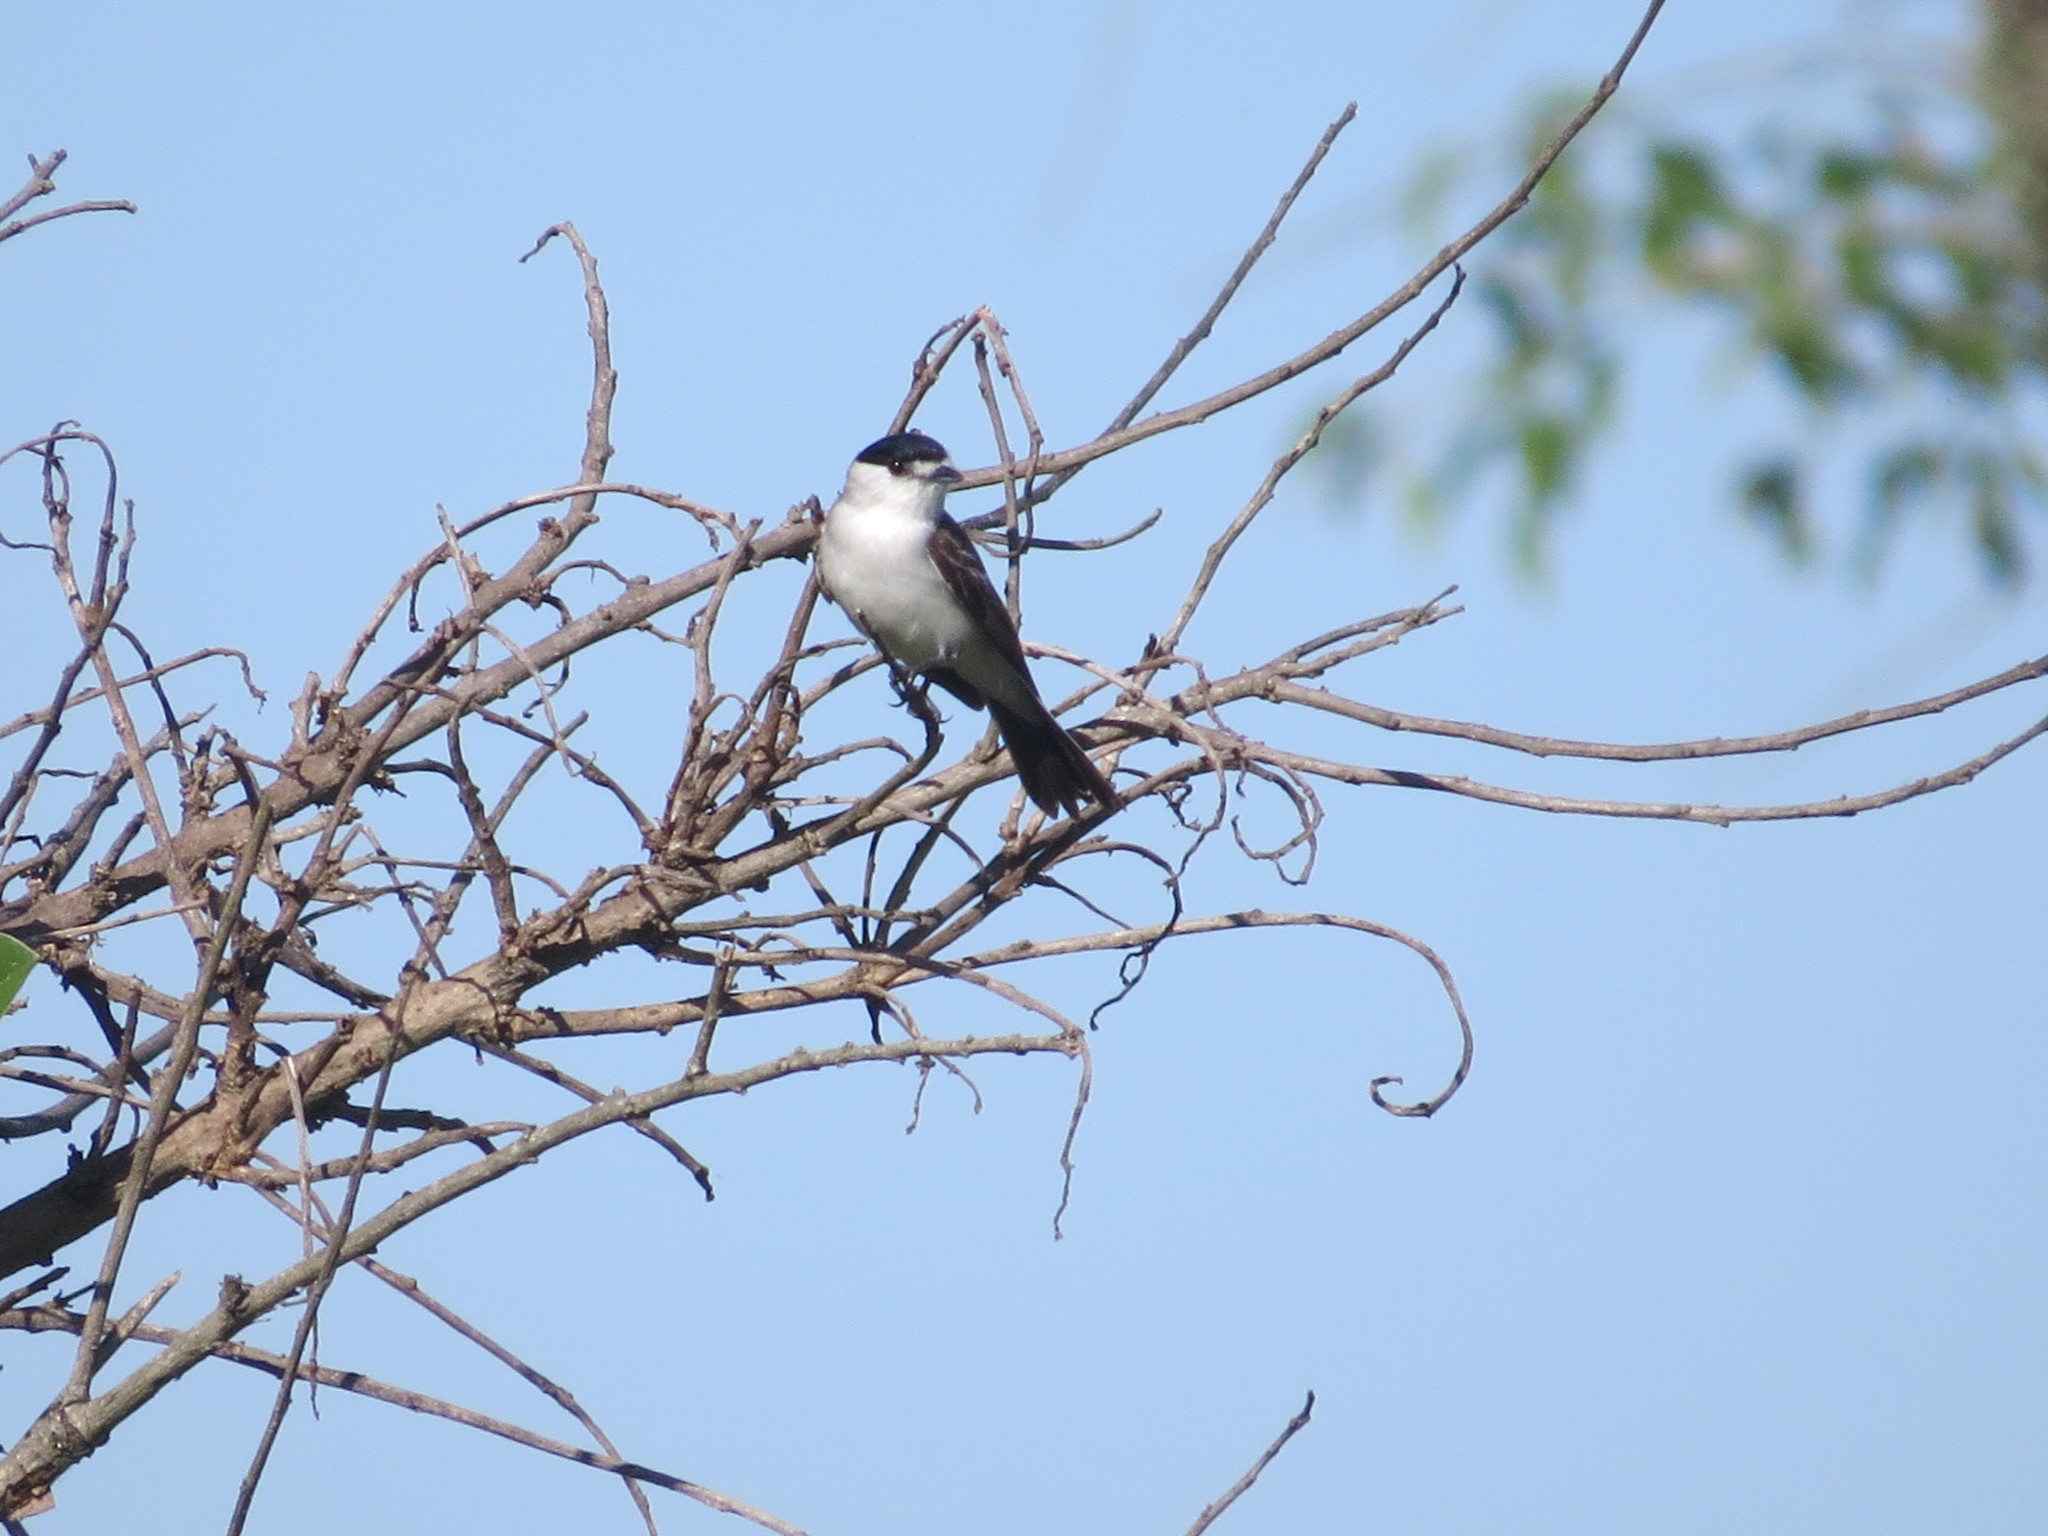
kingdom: Animalia
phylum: Chordata
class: Aves
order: Passeriformes
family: Cotingidae
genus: Xenopsaris
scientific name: Xenopsaris albinucha
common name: White-naped xenopsaris
